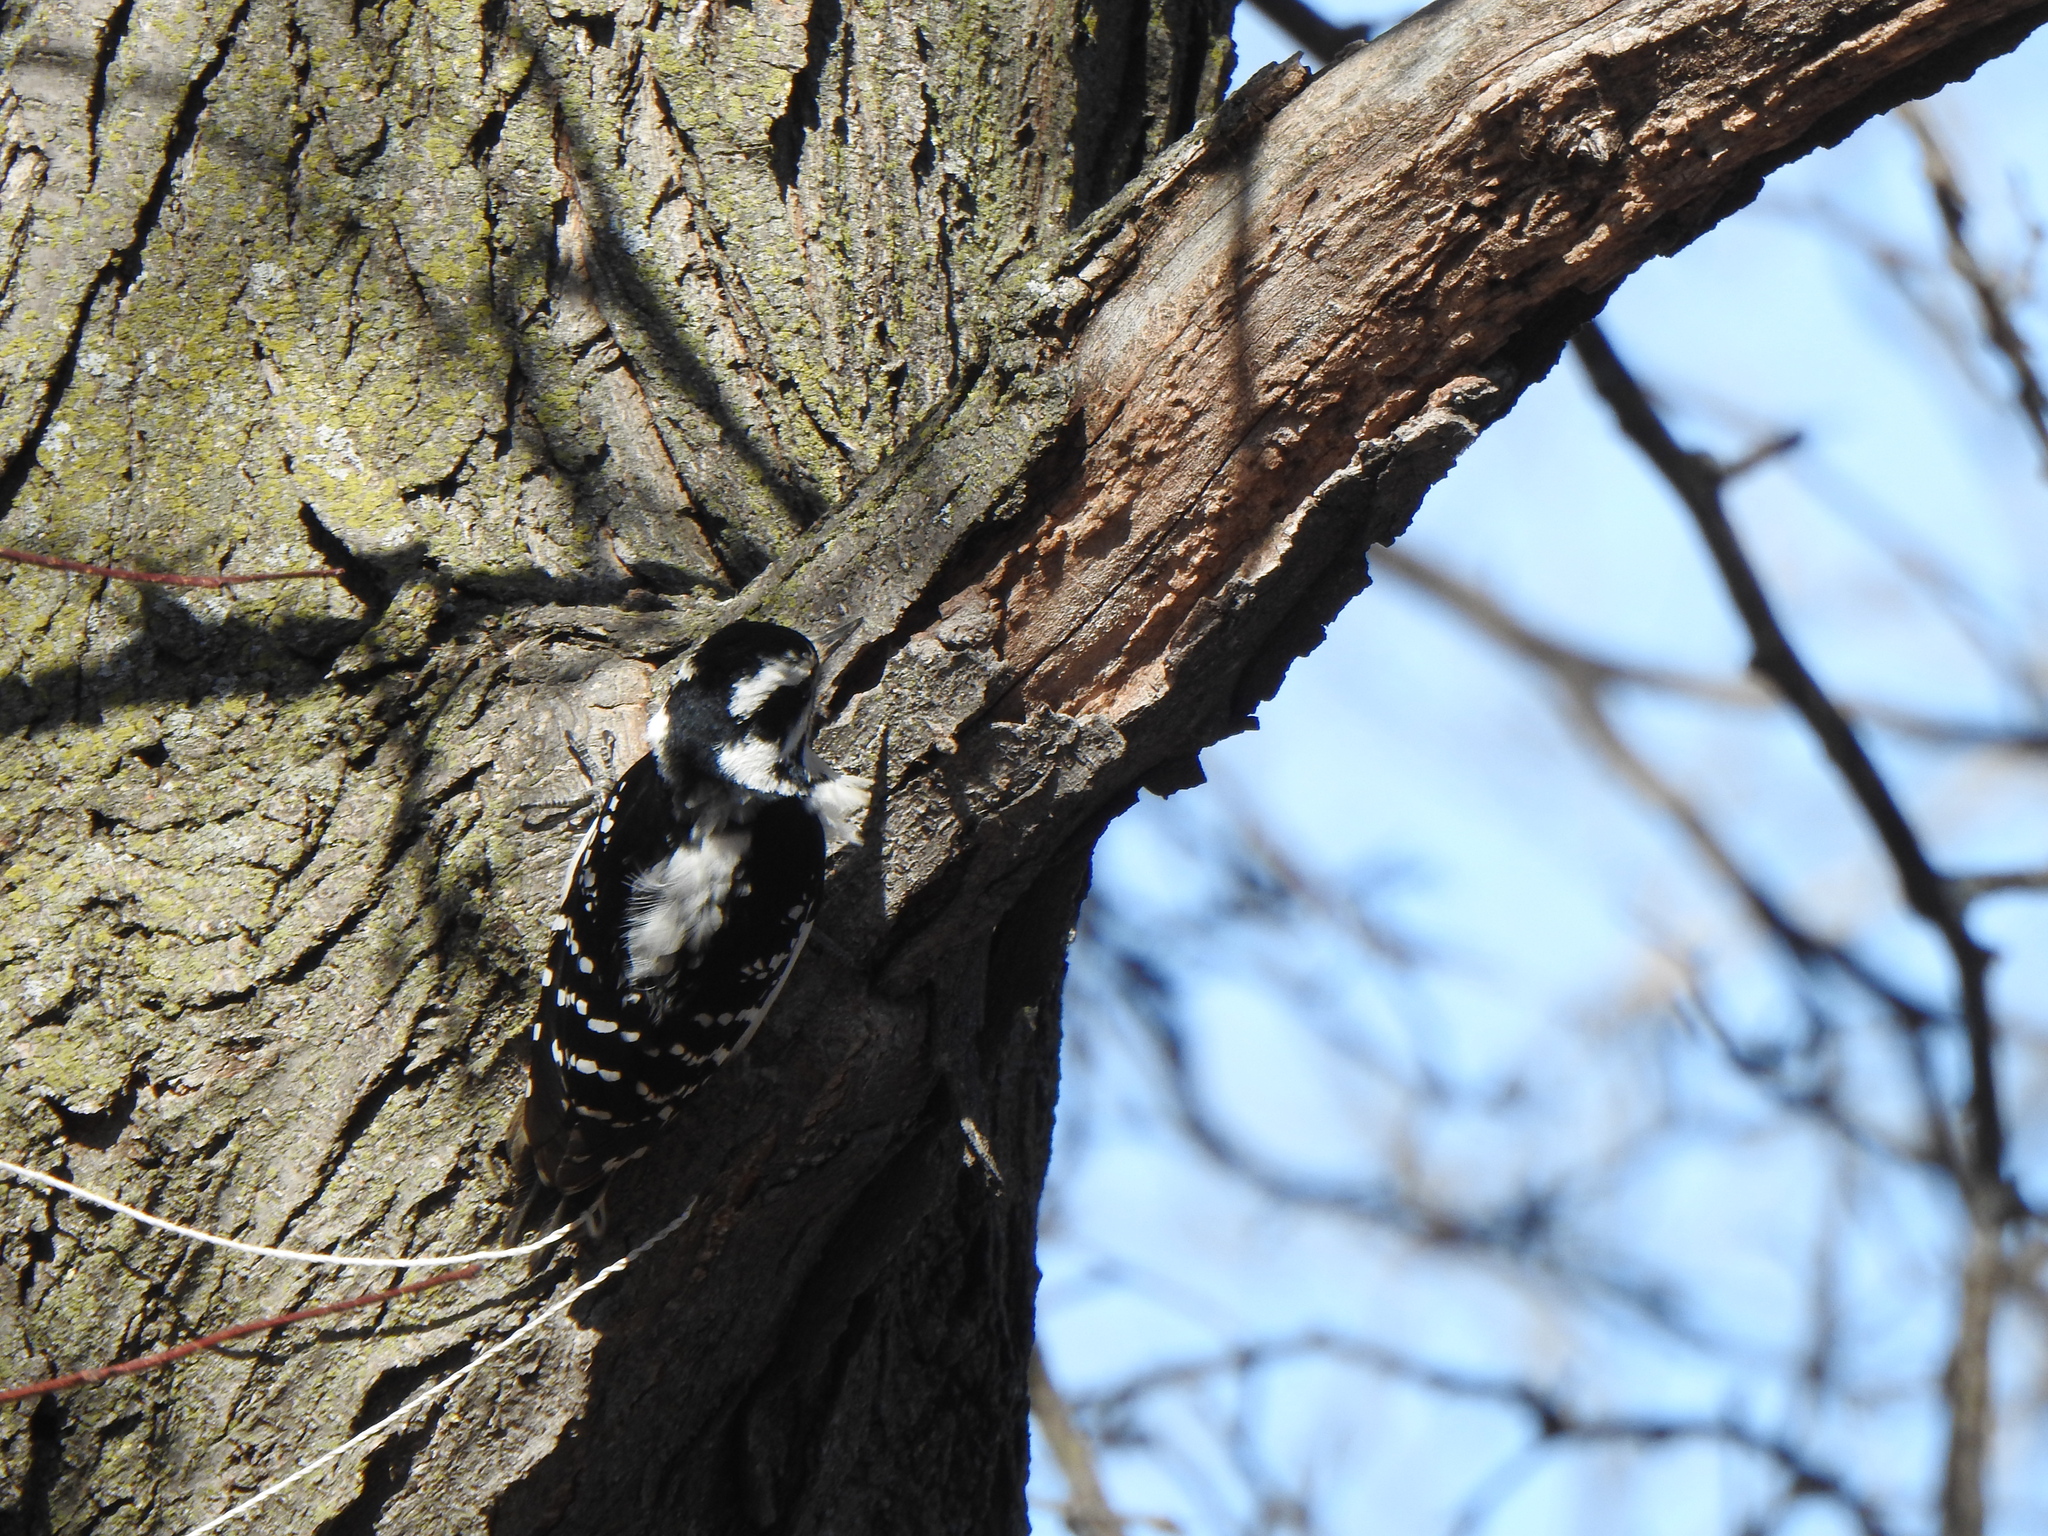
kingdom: Animalia
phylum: Chordata
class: Aves
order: Piciformes
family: Picidae
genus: Dryobates
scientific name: Dryobates pubescens
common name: Downy woodpecker
